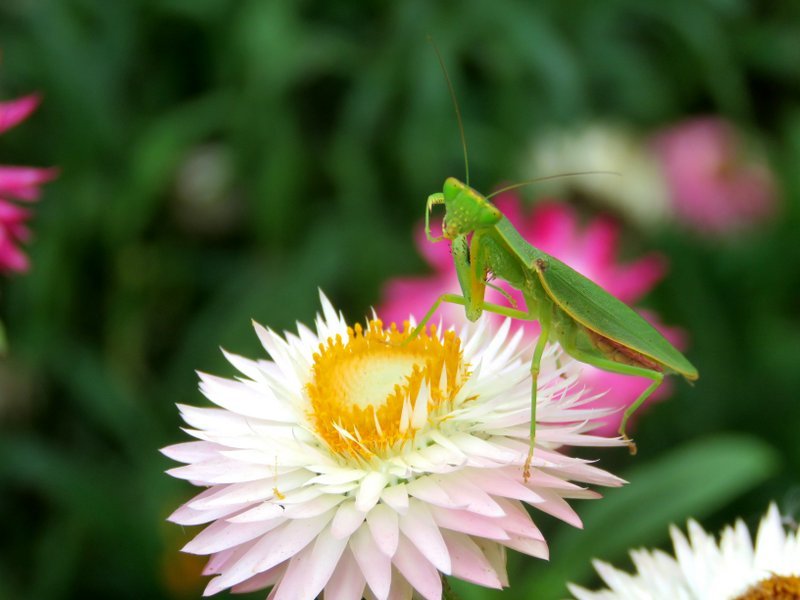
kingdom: Animalia
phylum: Arthropoda
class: Insecta
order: Mantodea
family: Mantidae
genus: Orthodera
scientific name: Orthodera ministralis
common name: Mantis
